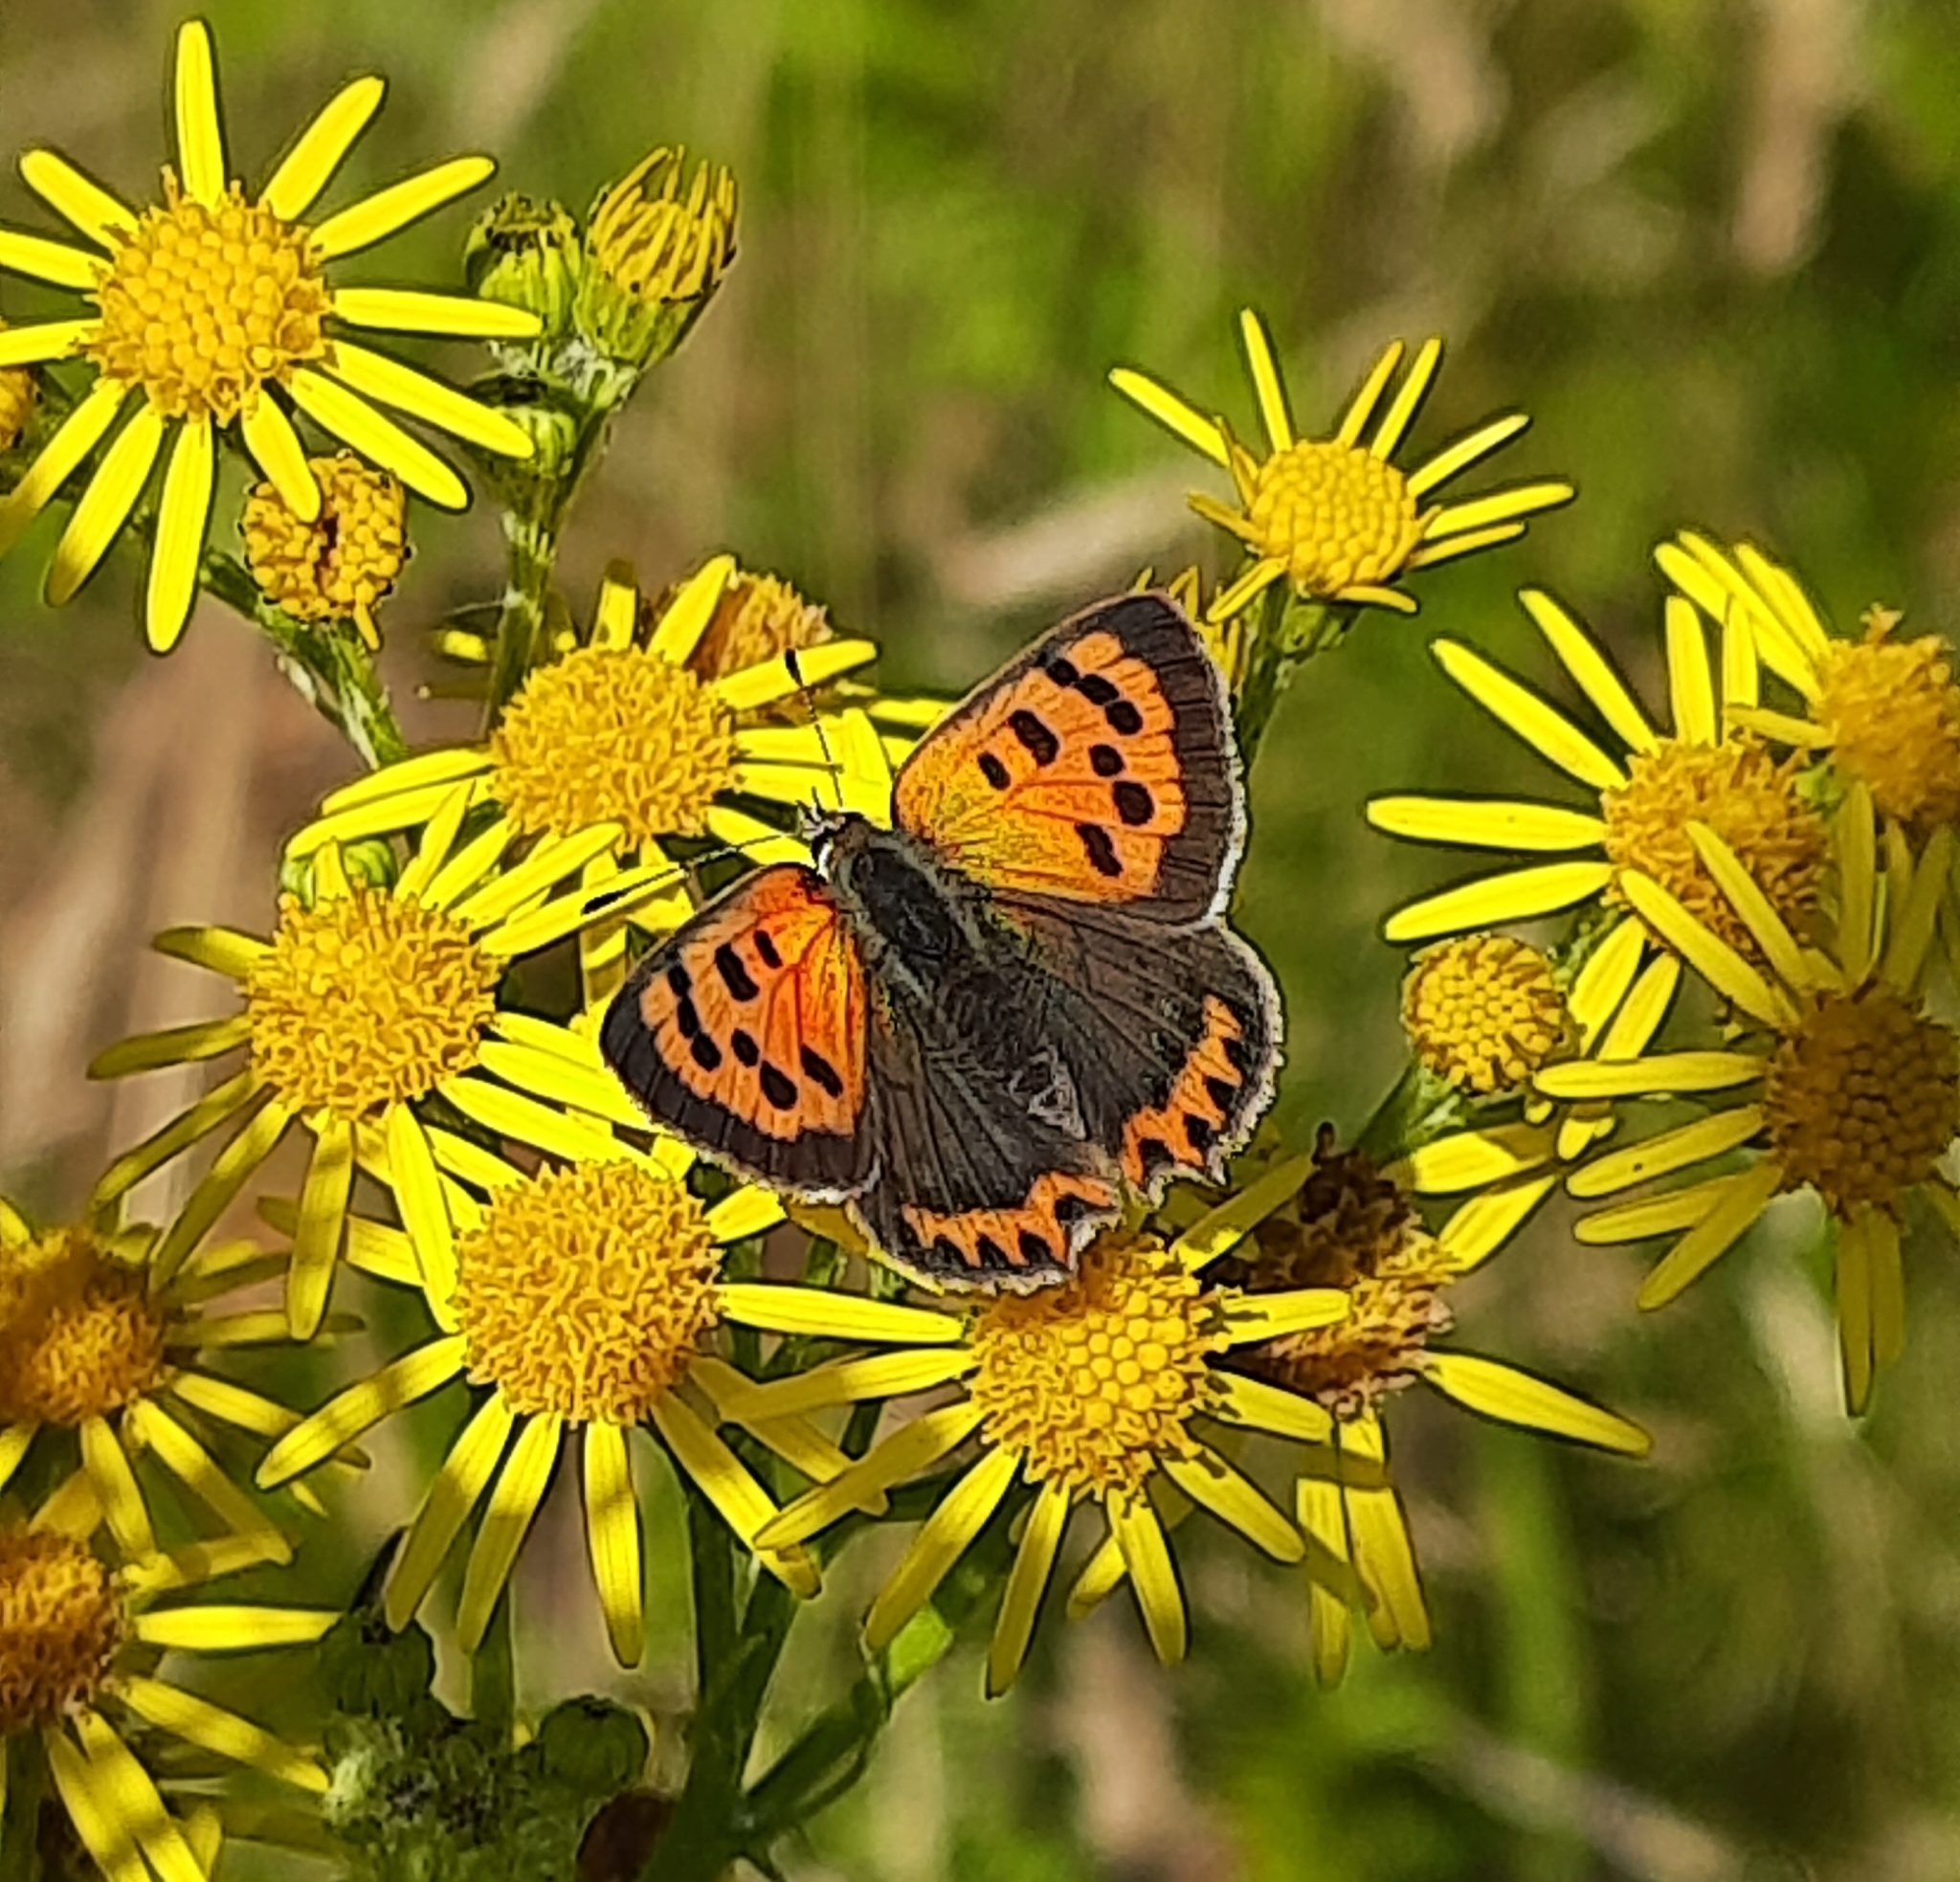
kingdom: Animalia
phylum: Arthropoda
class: Insecta
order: Lepidoptera
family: Lycaenidae
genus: Lycaena
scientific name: Lycaena phlaeas
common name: Small copper
